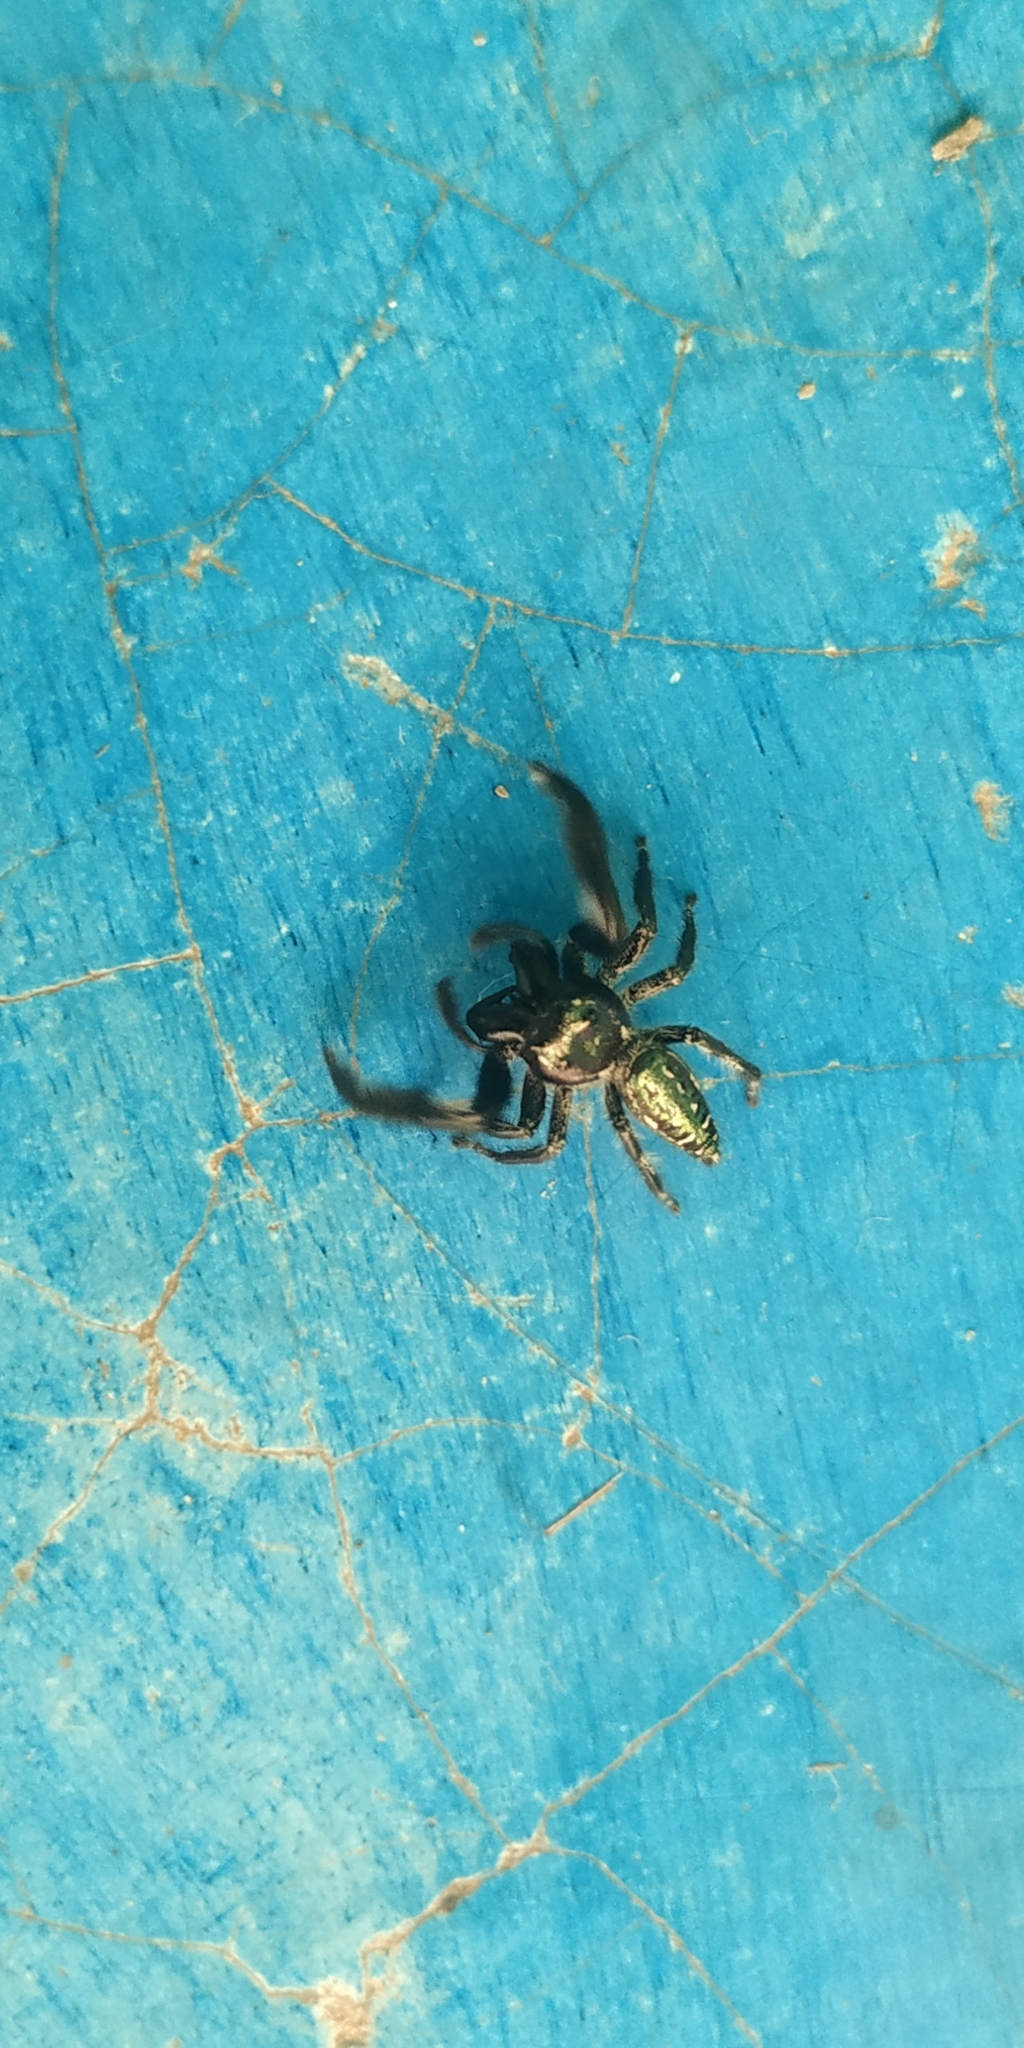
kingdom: Animalia
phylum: Arthropoda
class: Arachnida
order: Araneae
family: Salticidae
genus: Paraphidippus
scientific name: Paraphidippus fartilis
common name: Jumping spiders
